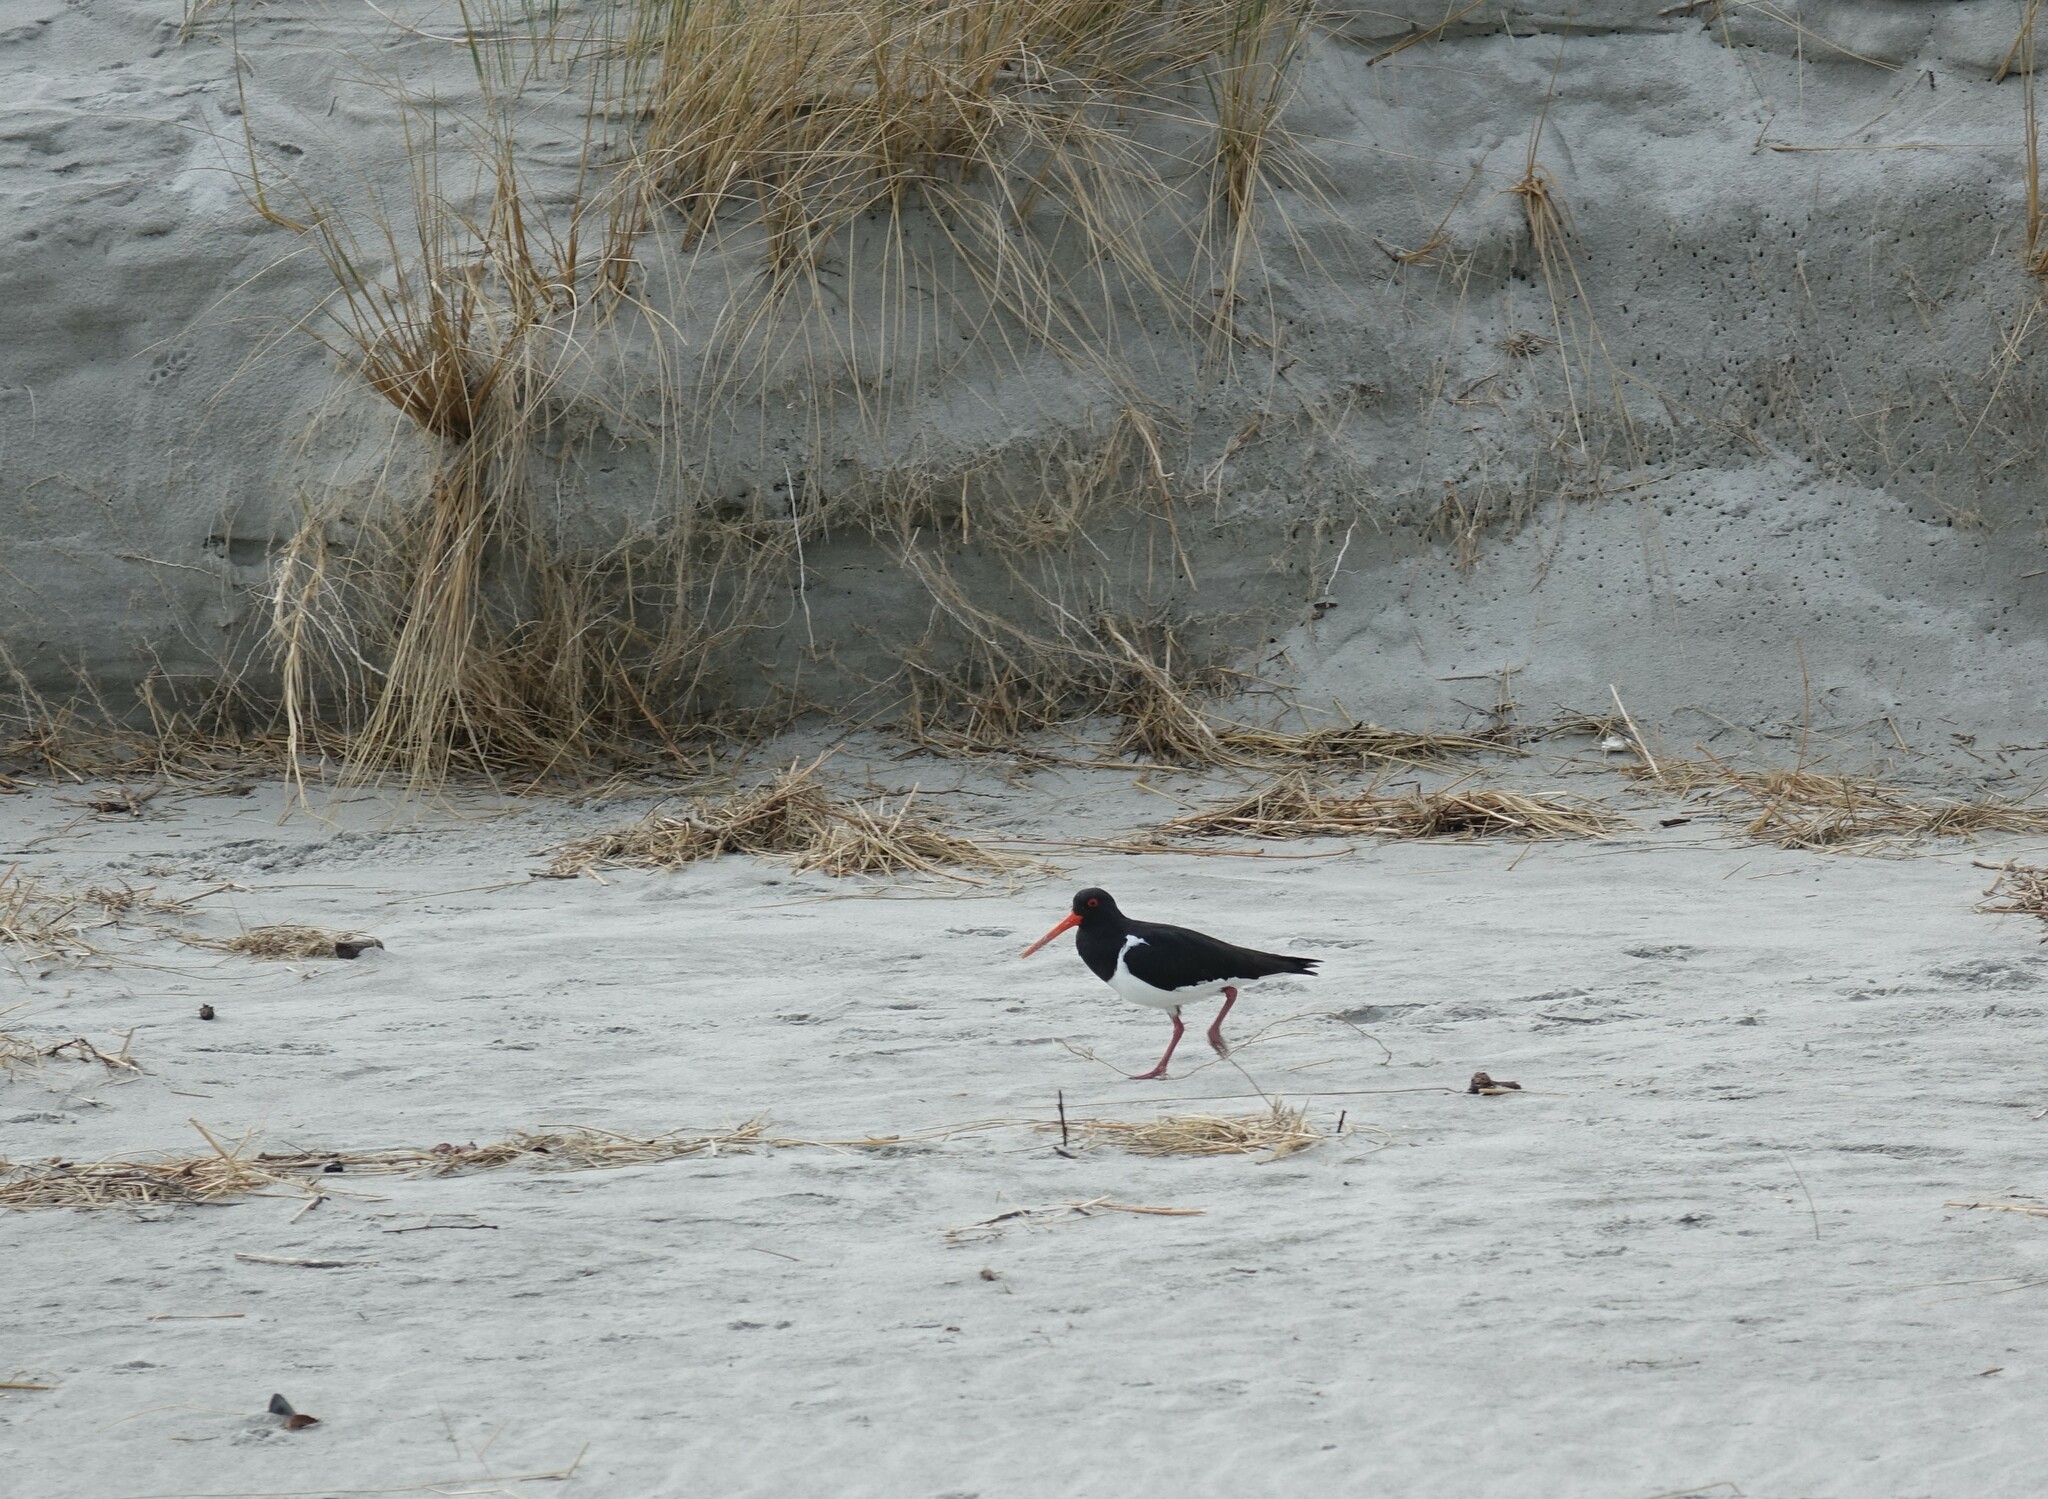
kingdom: Animalia
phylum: Chordata
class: Aves
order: Charadriiformes
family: Haematopodidae
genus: Haematopus
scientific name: Haematopus finschi
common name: South island oystercatcher
